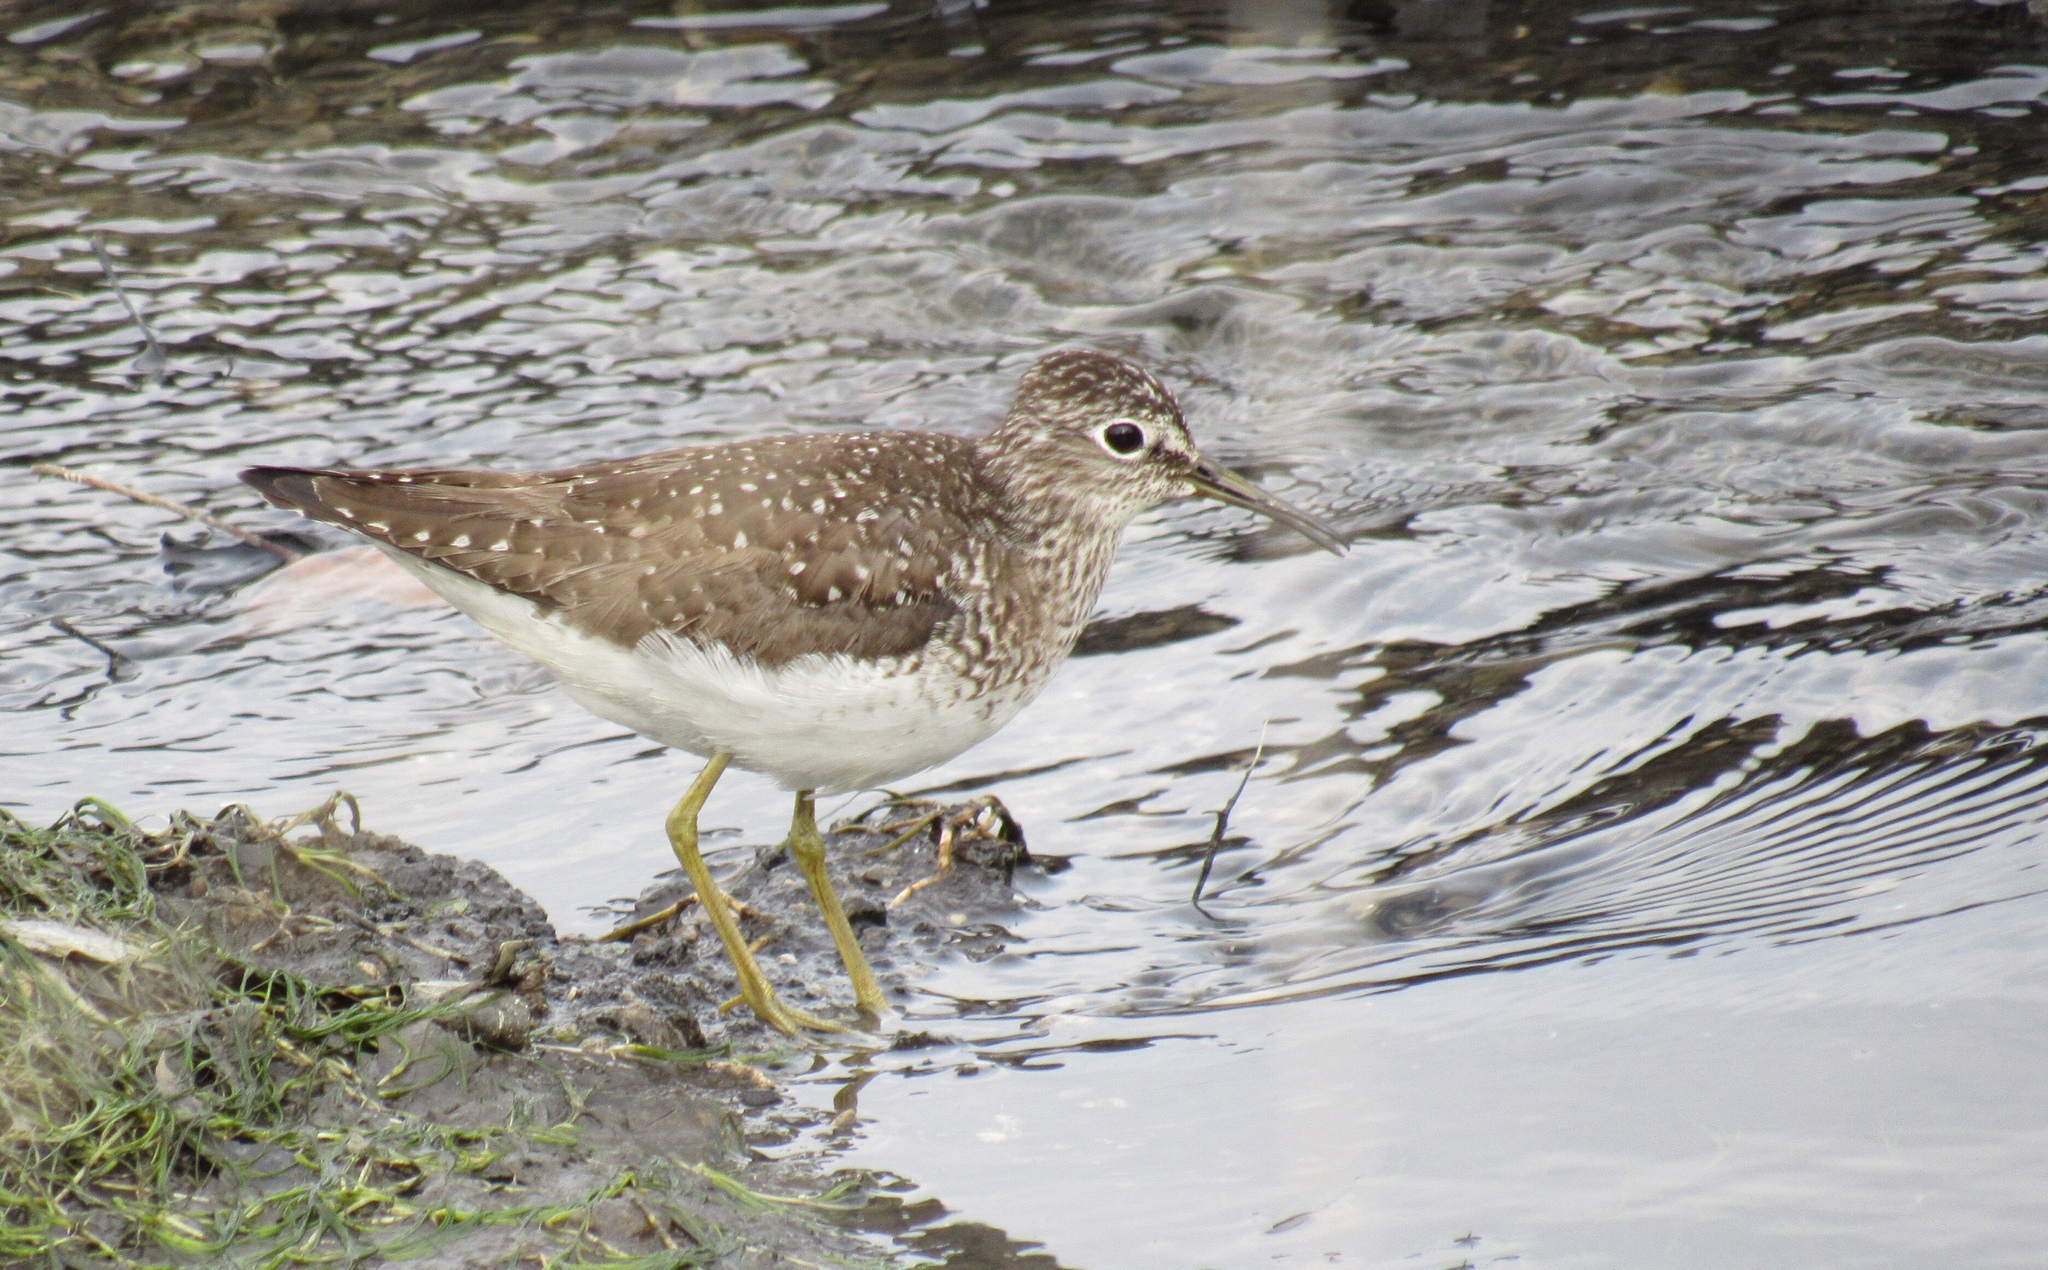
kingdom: Animalia
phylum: Chordata
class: Aves
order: Charadriiformes
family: Scolopacidae
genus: Tringa
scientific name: Tringa solitaria
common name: Solitary sandpiper
